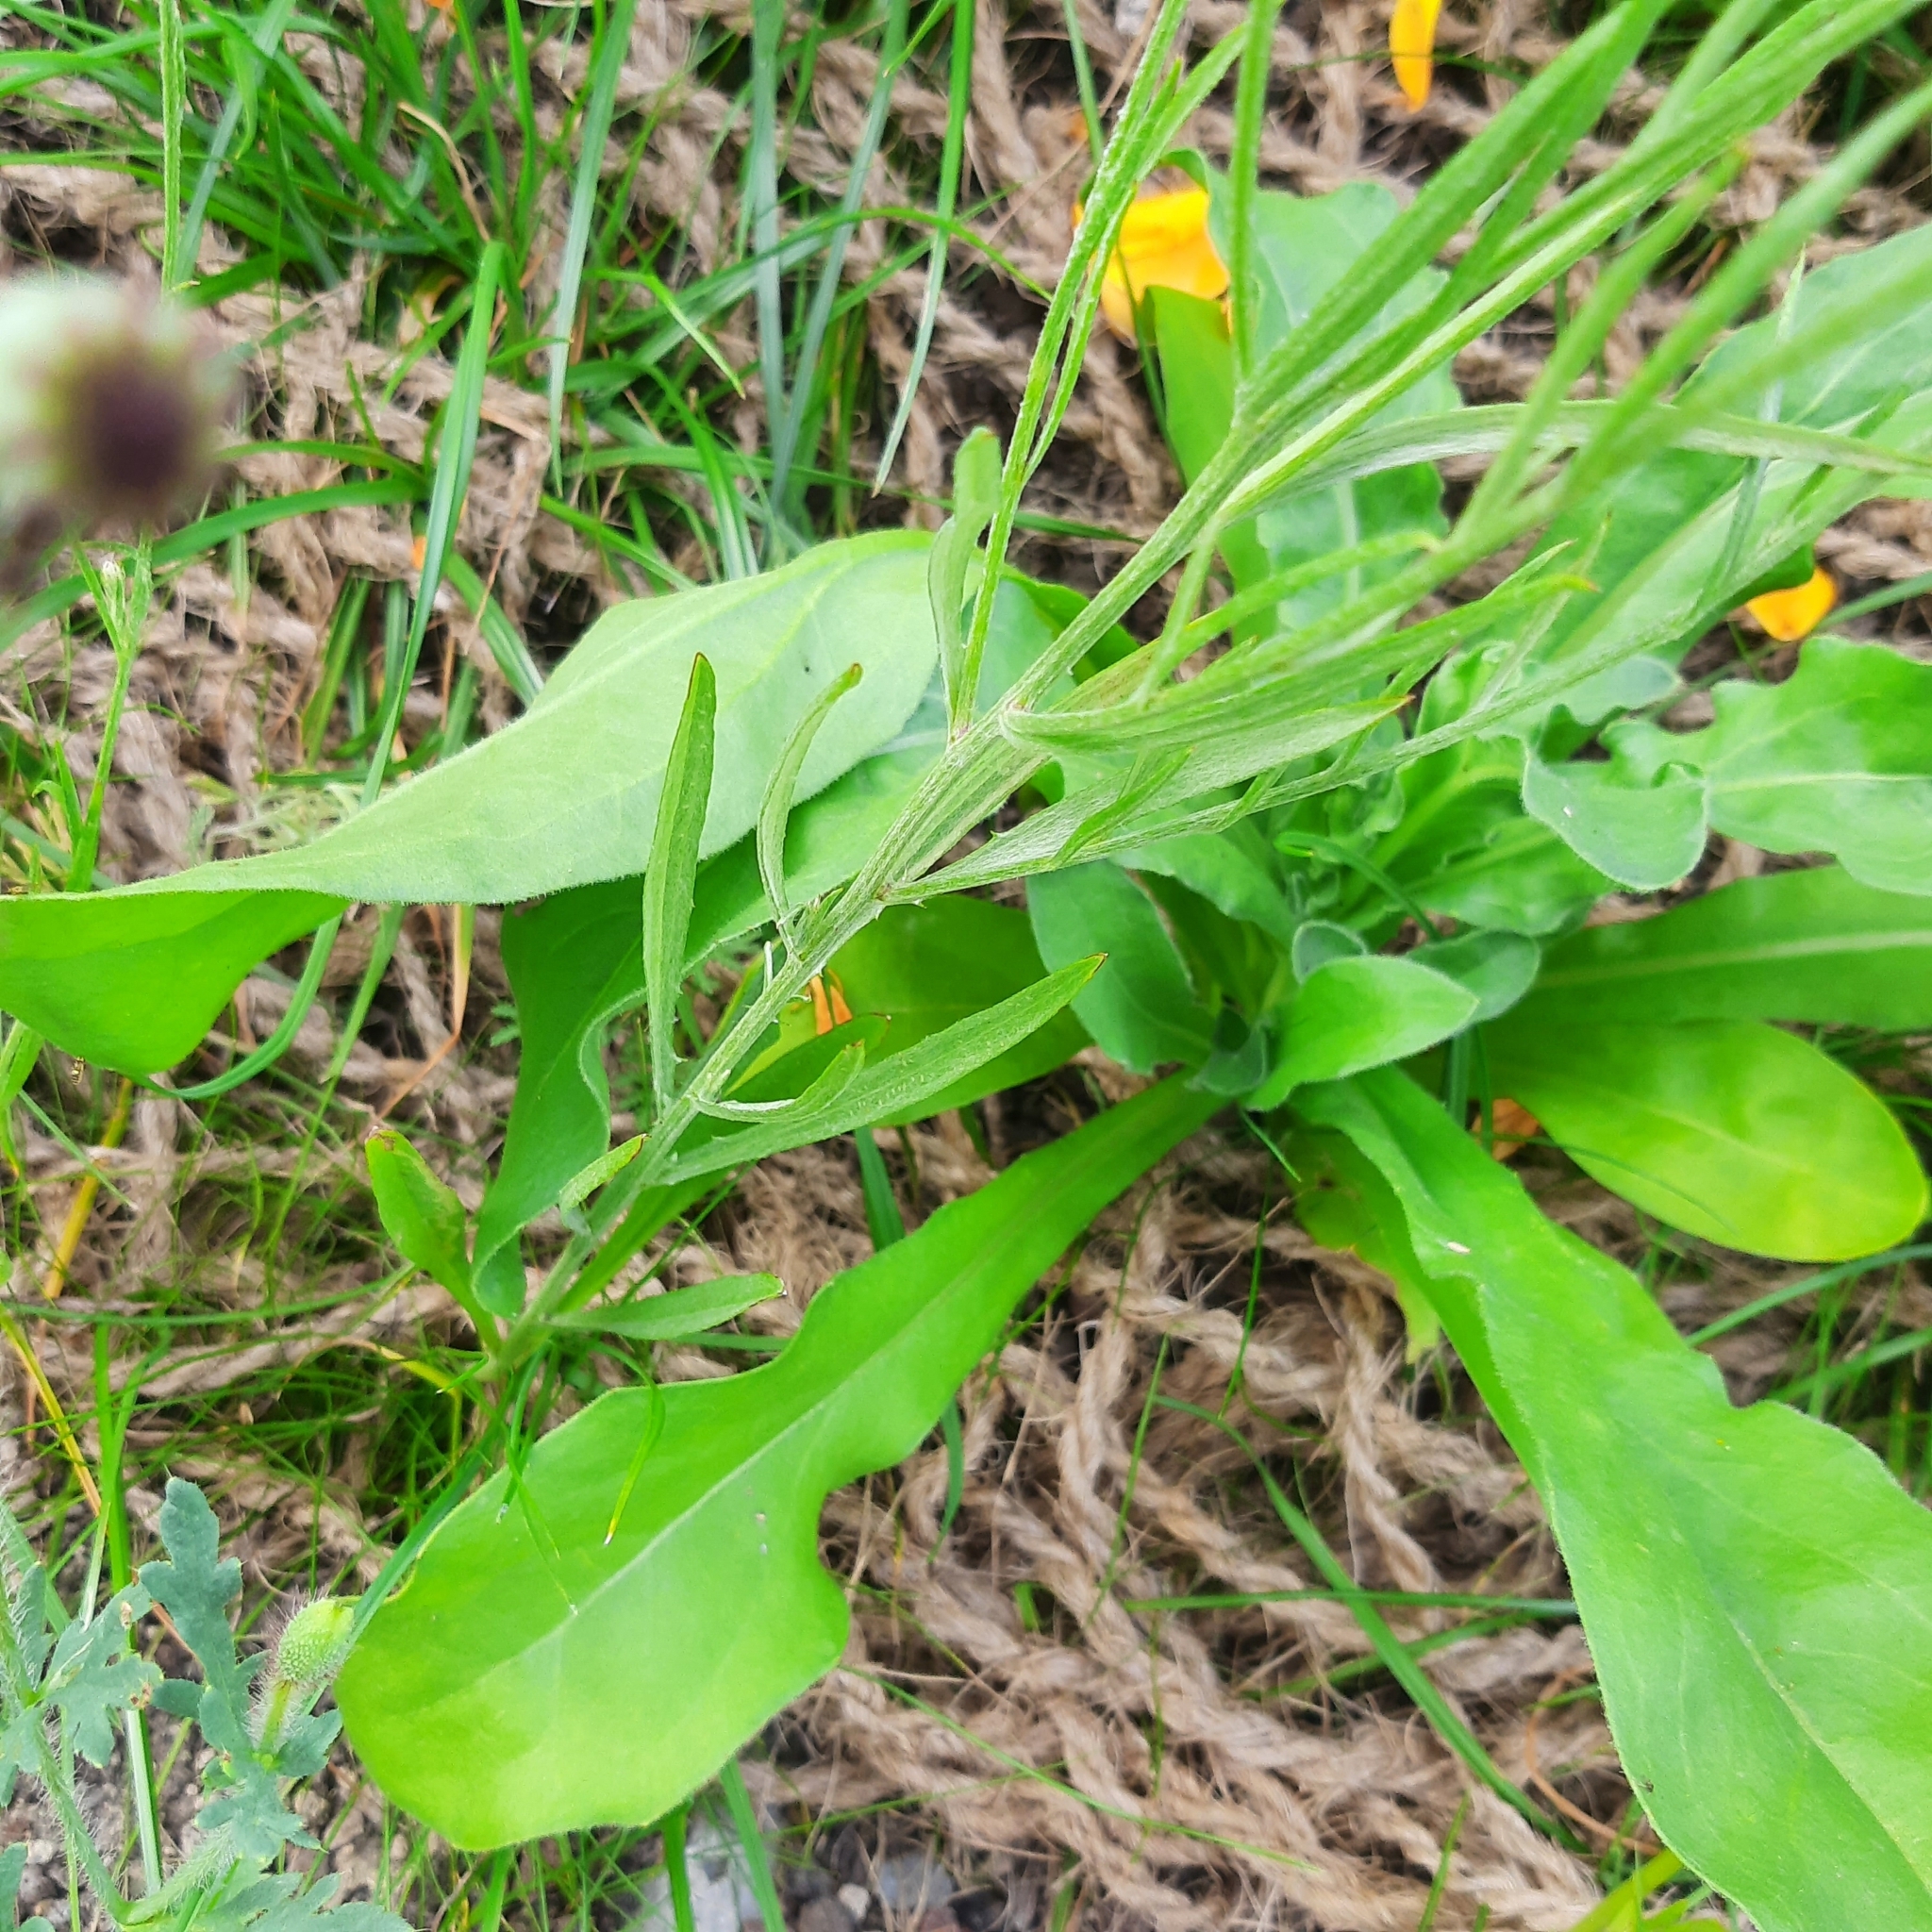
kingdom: Plantae
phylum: Tracheophyta
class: Magnoliopsida
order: Asterales
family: Asteraceae
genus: Centaurea
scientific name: Centaurea cyanus
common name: Cornflower
